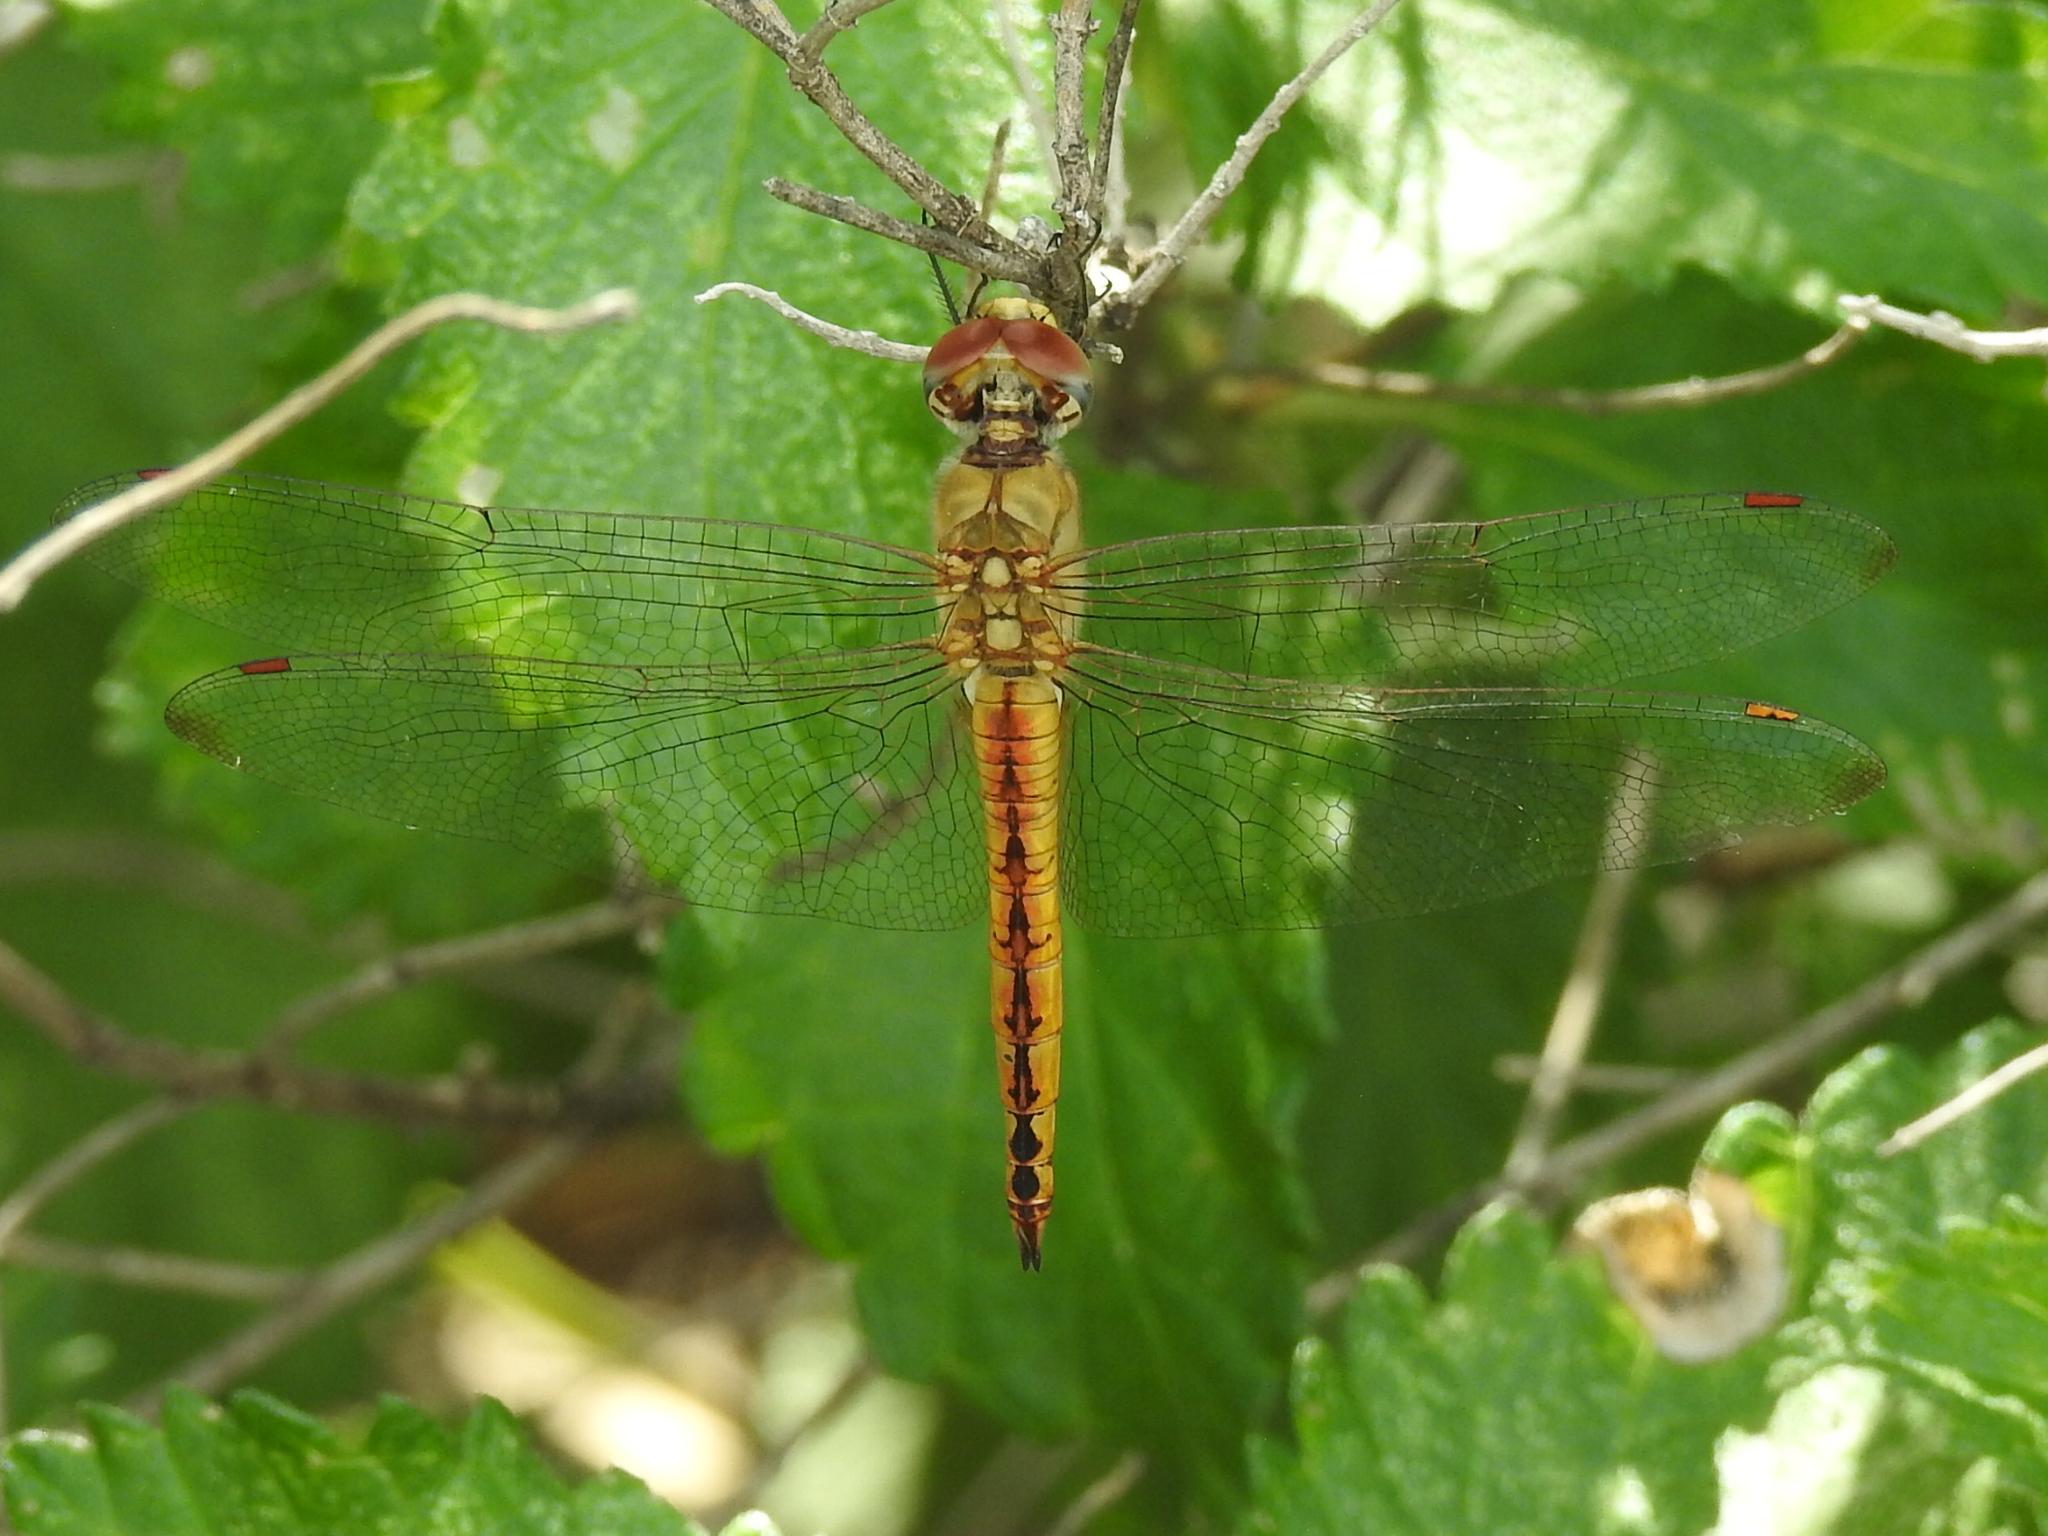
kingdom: Animalia
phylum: Arthropoda
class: Insecta
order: Odonata
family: Libellulidae
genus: Pantala
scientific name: Pantala flavescens
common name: Wandering glider
